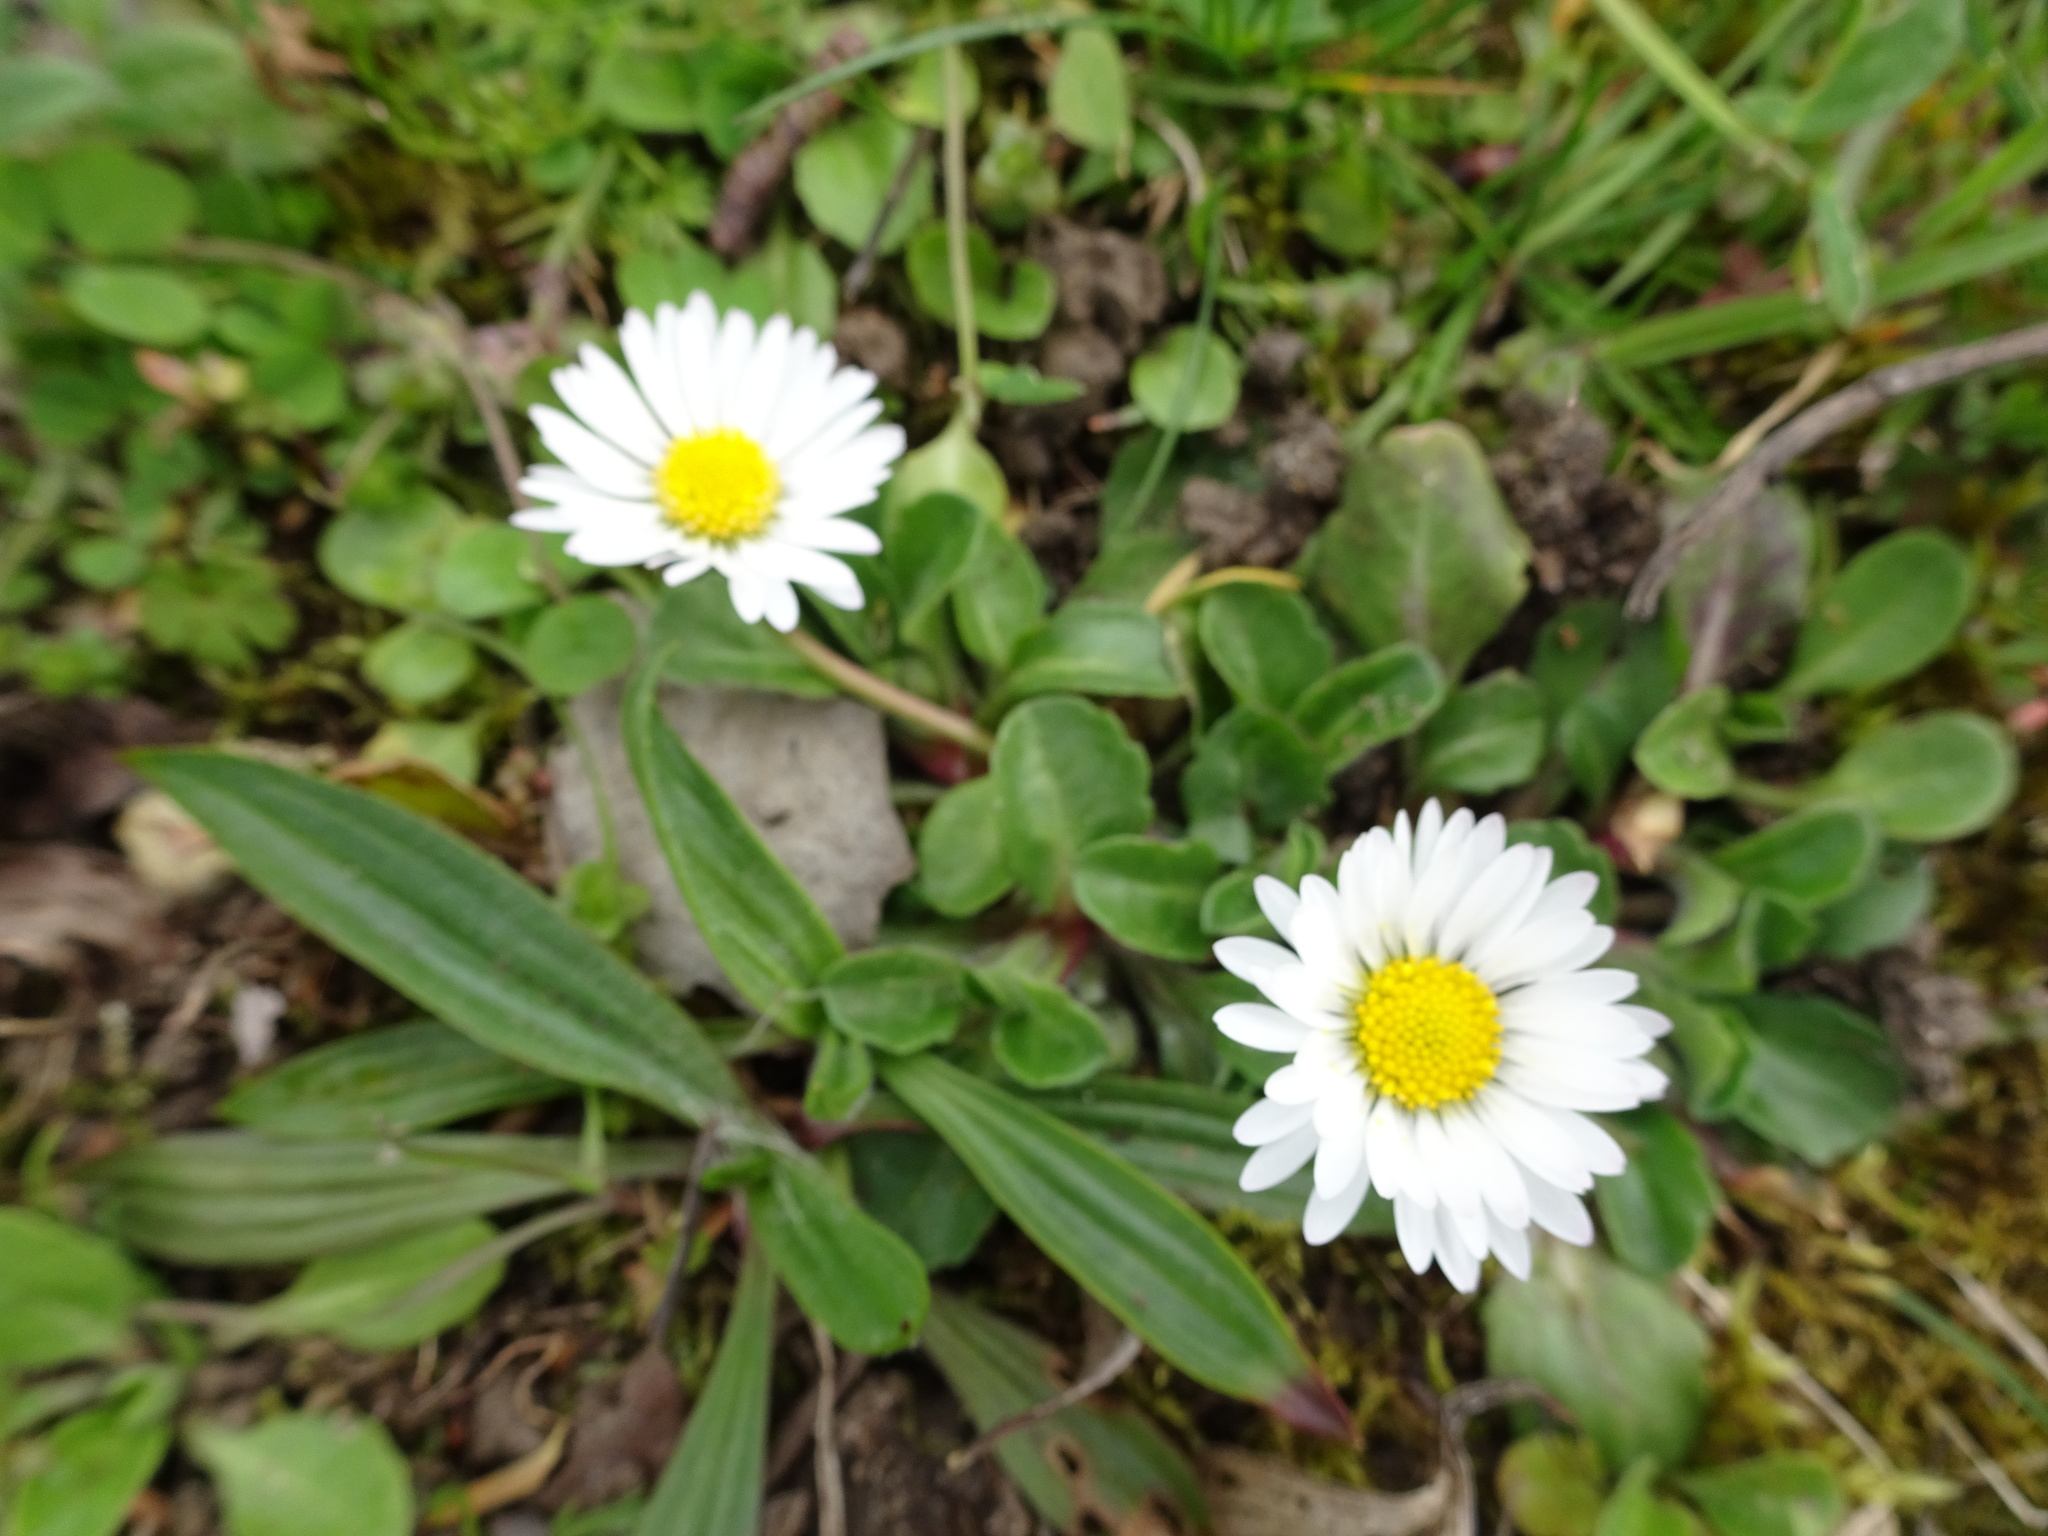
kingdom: Plantae
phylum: Tracheophyta
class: Magnoliopsida
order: Asterales
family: Asteraceae
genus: Bellis
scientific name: Bellis perennis
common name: Lawndaisy
